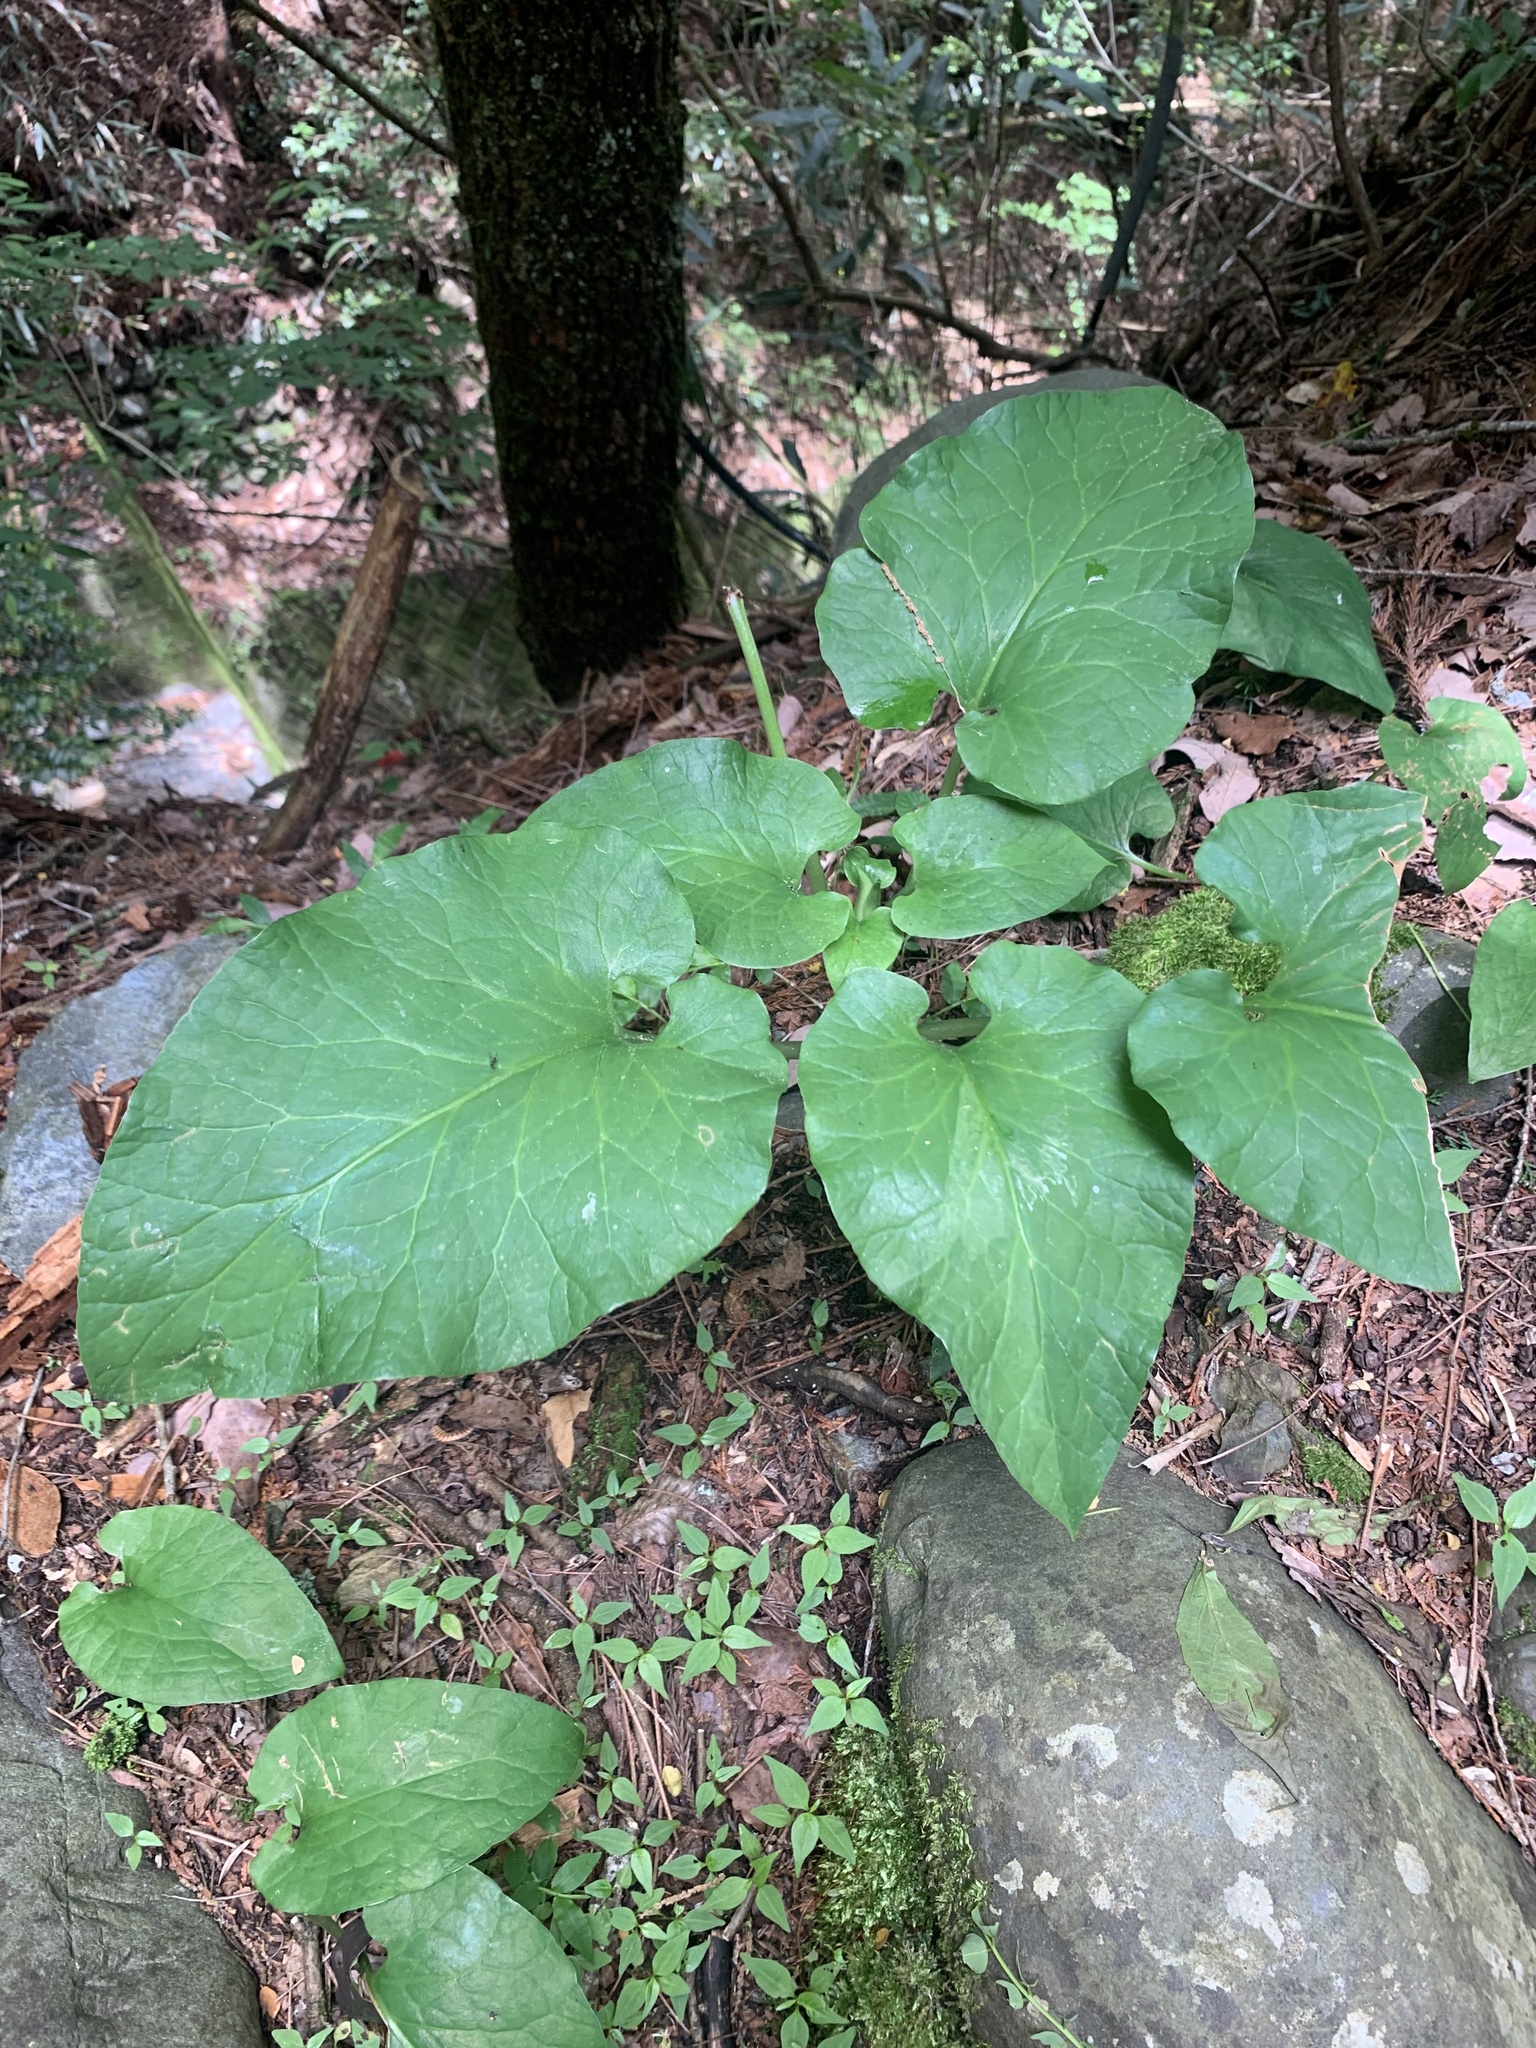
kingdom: Plantae
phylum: Tracheophyta
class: Liliopsida
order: Liliales
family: Liliaceae
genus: Cardiocrinum
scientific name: Cardiocrinum cordatum
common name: Lily
